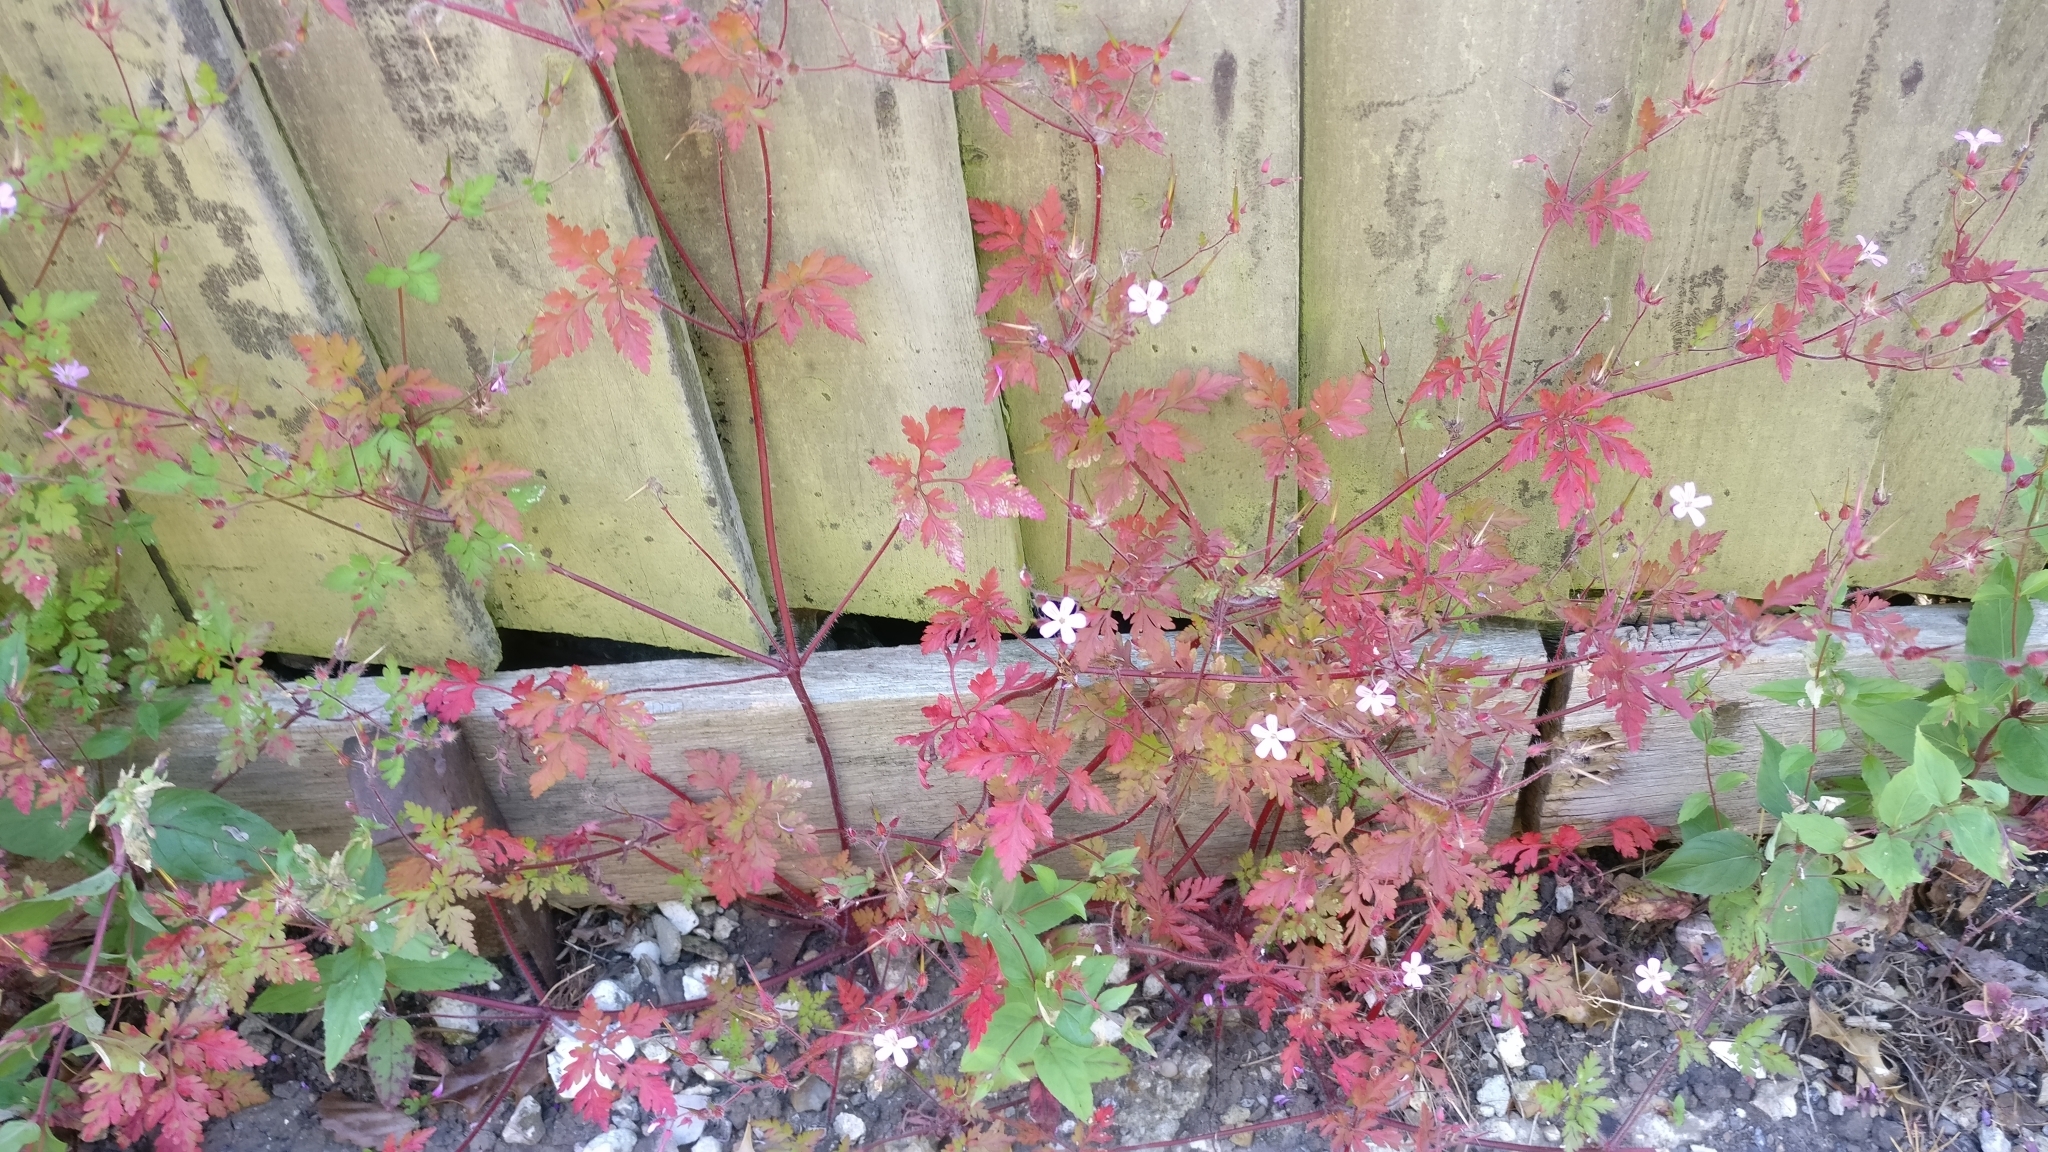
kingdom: Plantae
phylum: Tracheophyta
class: Magnoliopsida
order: Geraniales
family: Geraniaceae
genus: Geranium
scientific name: Geranium robertianum
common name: Herb-robert
